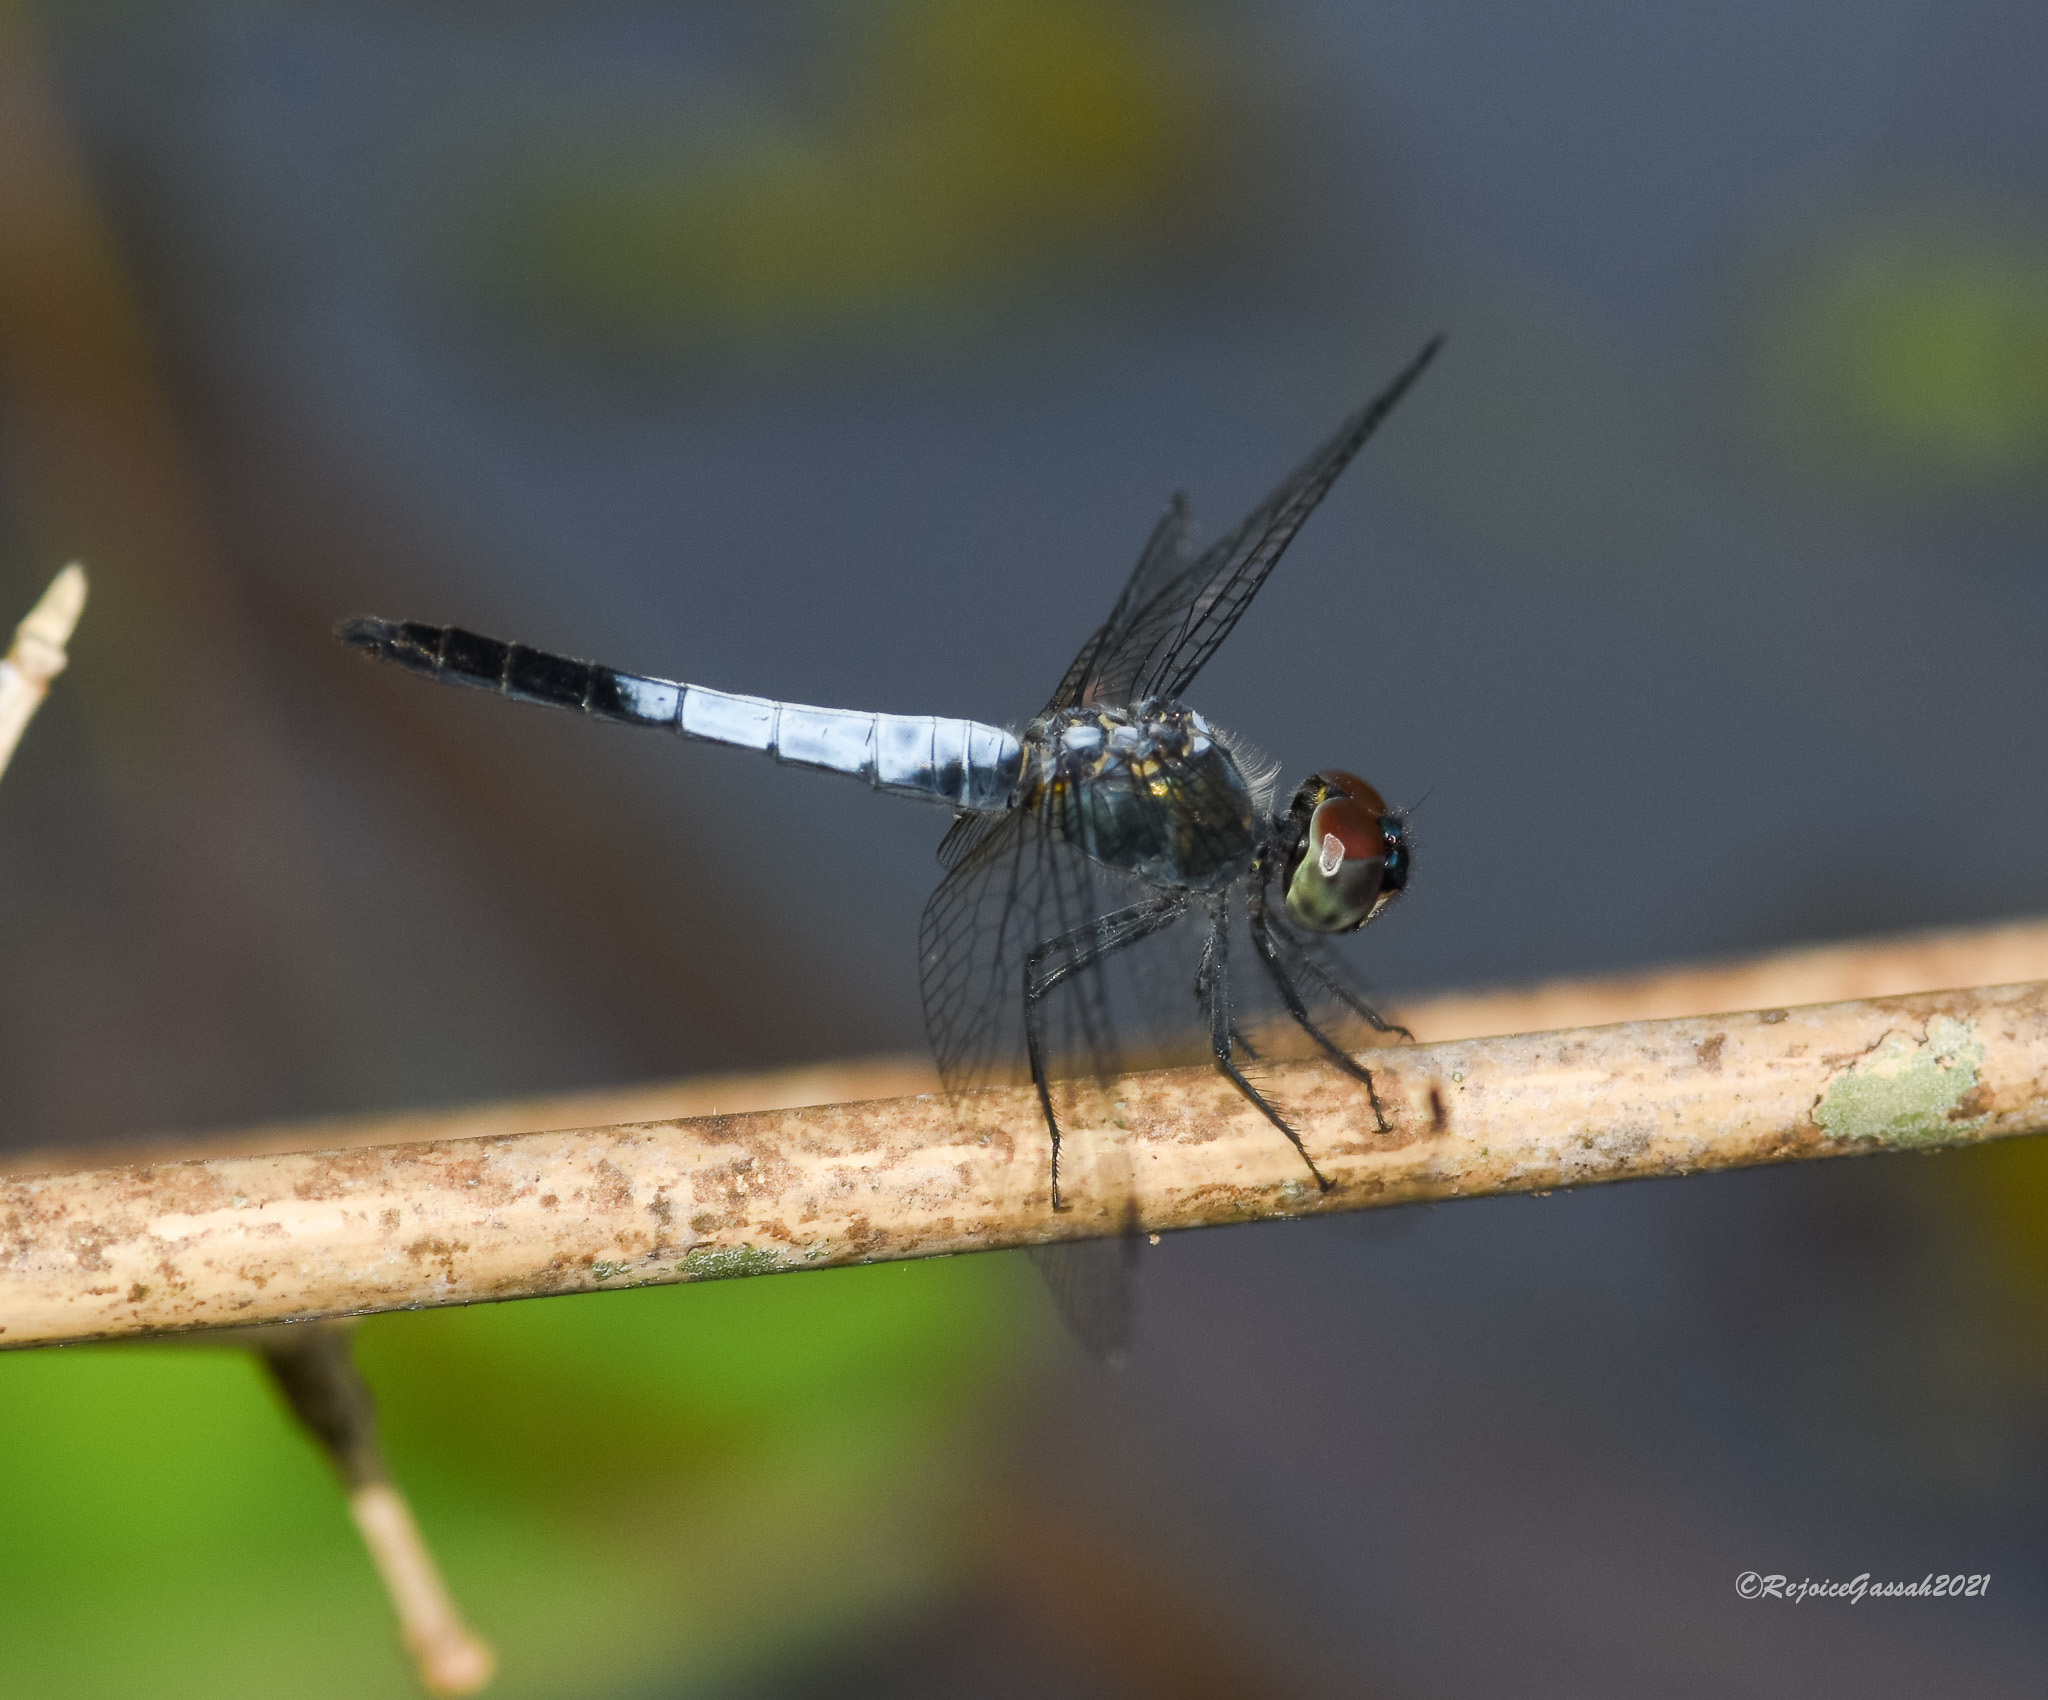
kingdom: Animalia
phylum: Arthropoda
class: Insecta
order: Odonata
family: Libellulidae
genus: Brachydiplax
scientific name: Brachydiplax farinosa
